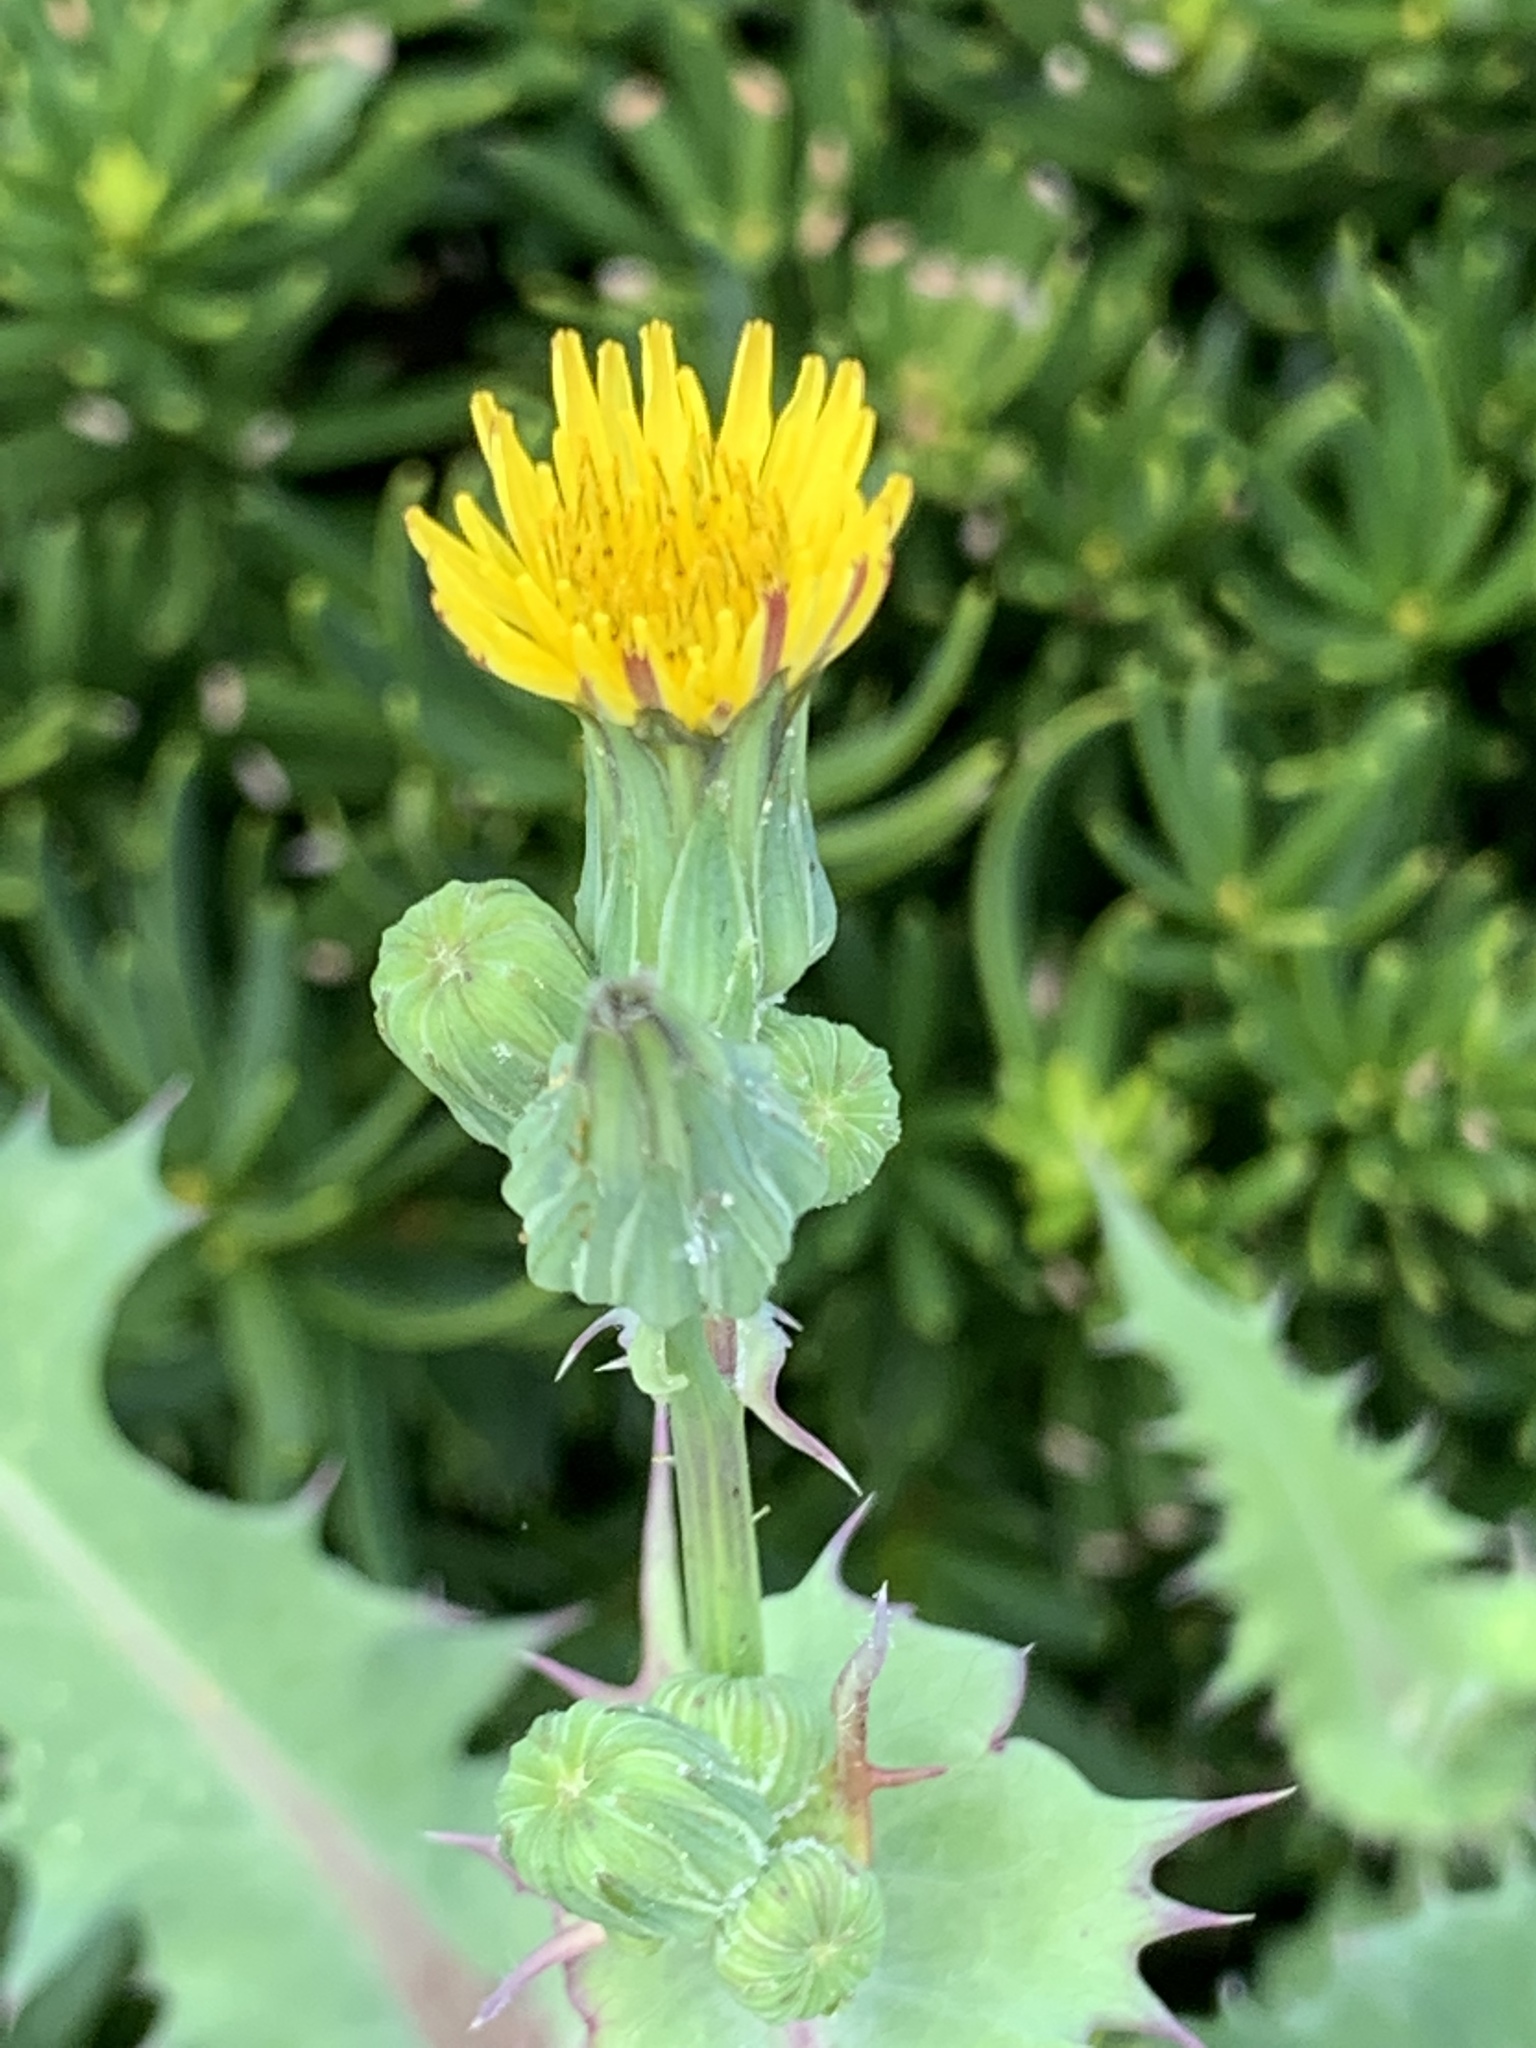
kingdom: Plantae
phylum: Tracheophyta
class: Magnoliopsida
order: Asterales
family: Asteraceae
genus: Sonchus
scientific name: Sonchus oleraceus
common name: Common sowthistle
